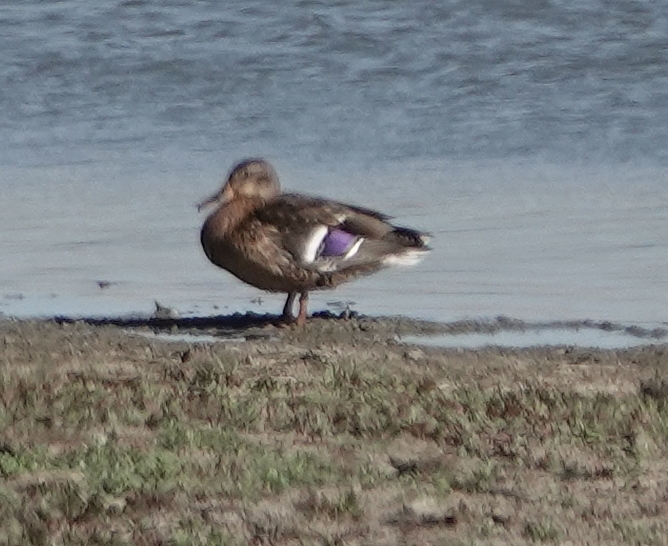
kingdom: Animalia
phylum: Chordata
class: Aves
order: Anseriformes
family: Anatidae
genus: Anas
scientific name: Anas platyrhynchos
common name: Mallard
